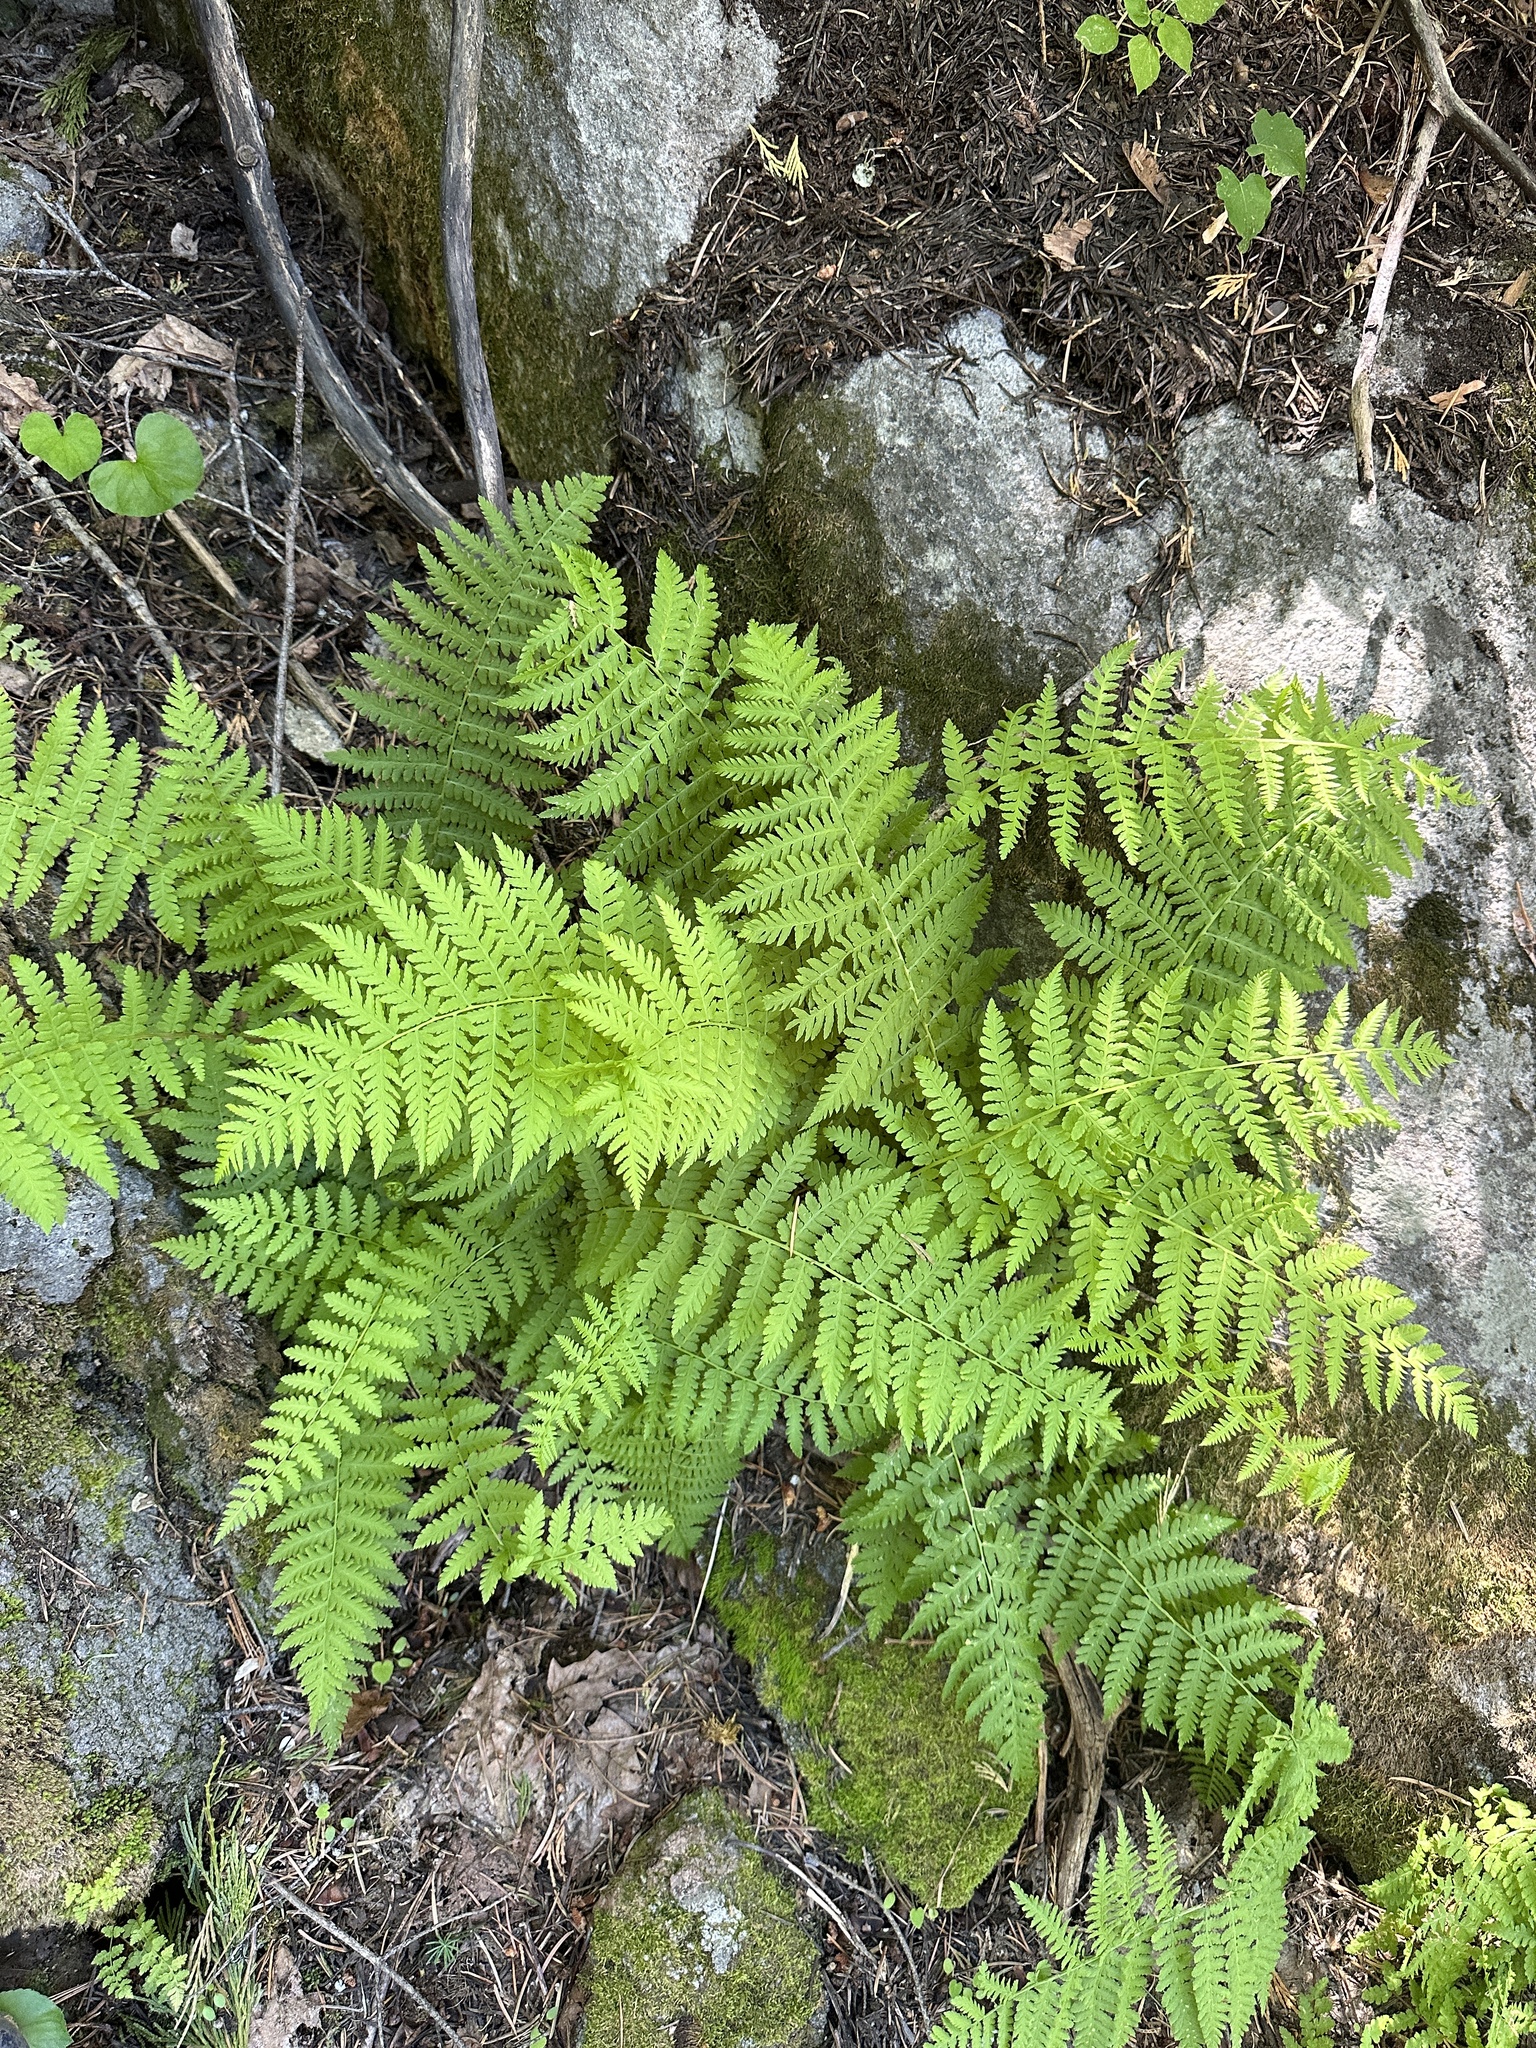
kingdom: Plantae
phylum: Tracheophyta
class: Polypodiopsida
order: Polypodiales
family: Athyriaceae
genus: Athyrium
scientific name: Athyrium filix-femina
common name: Lady fern
